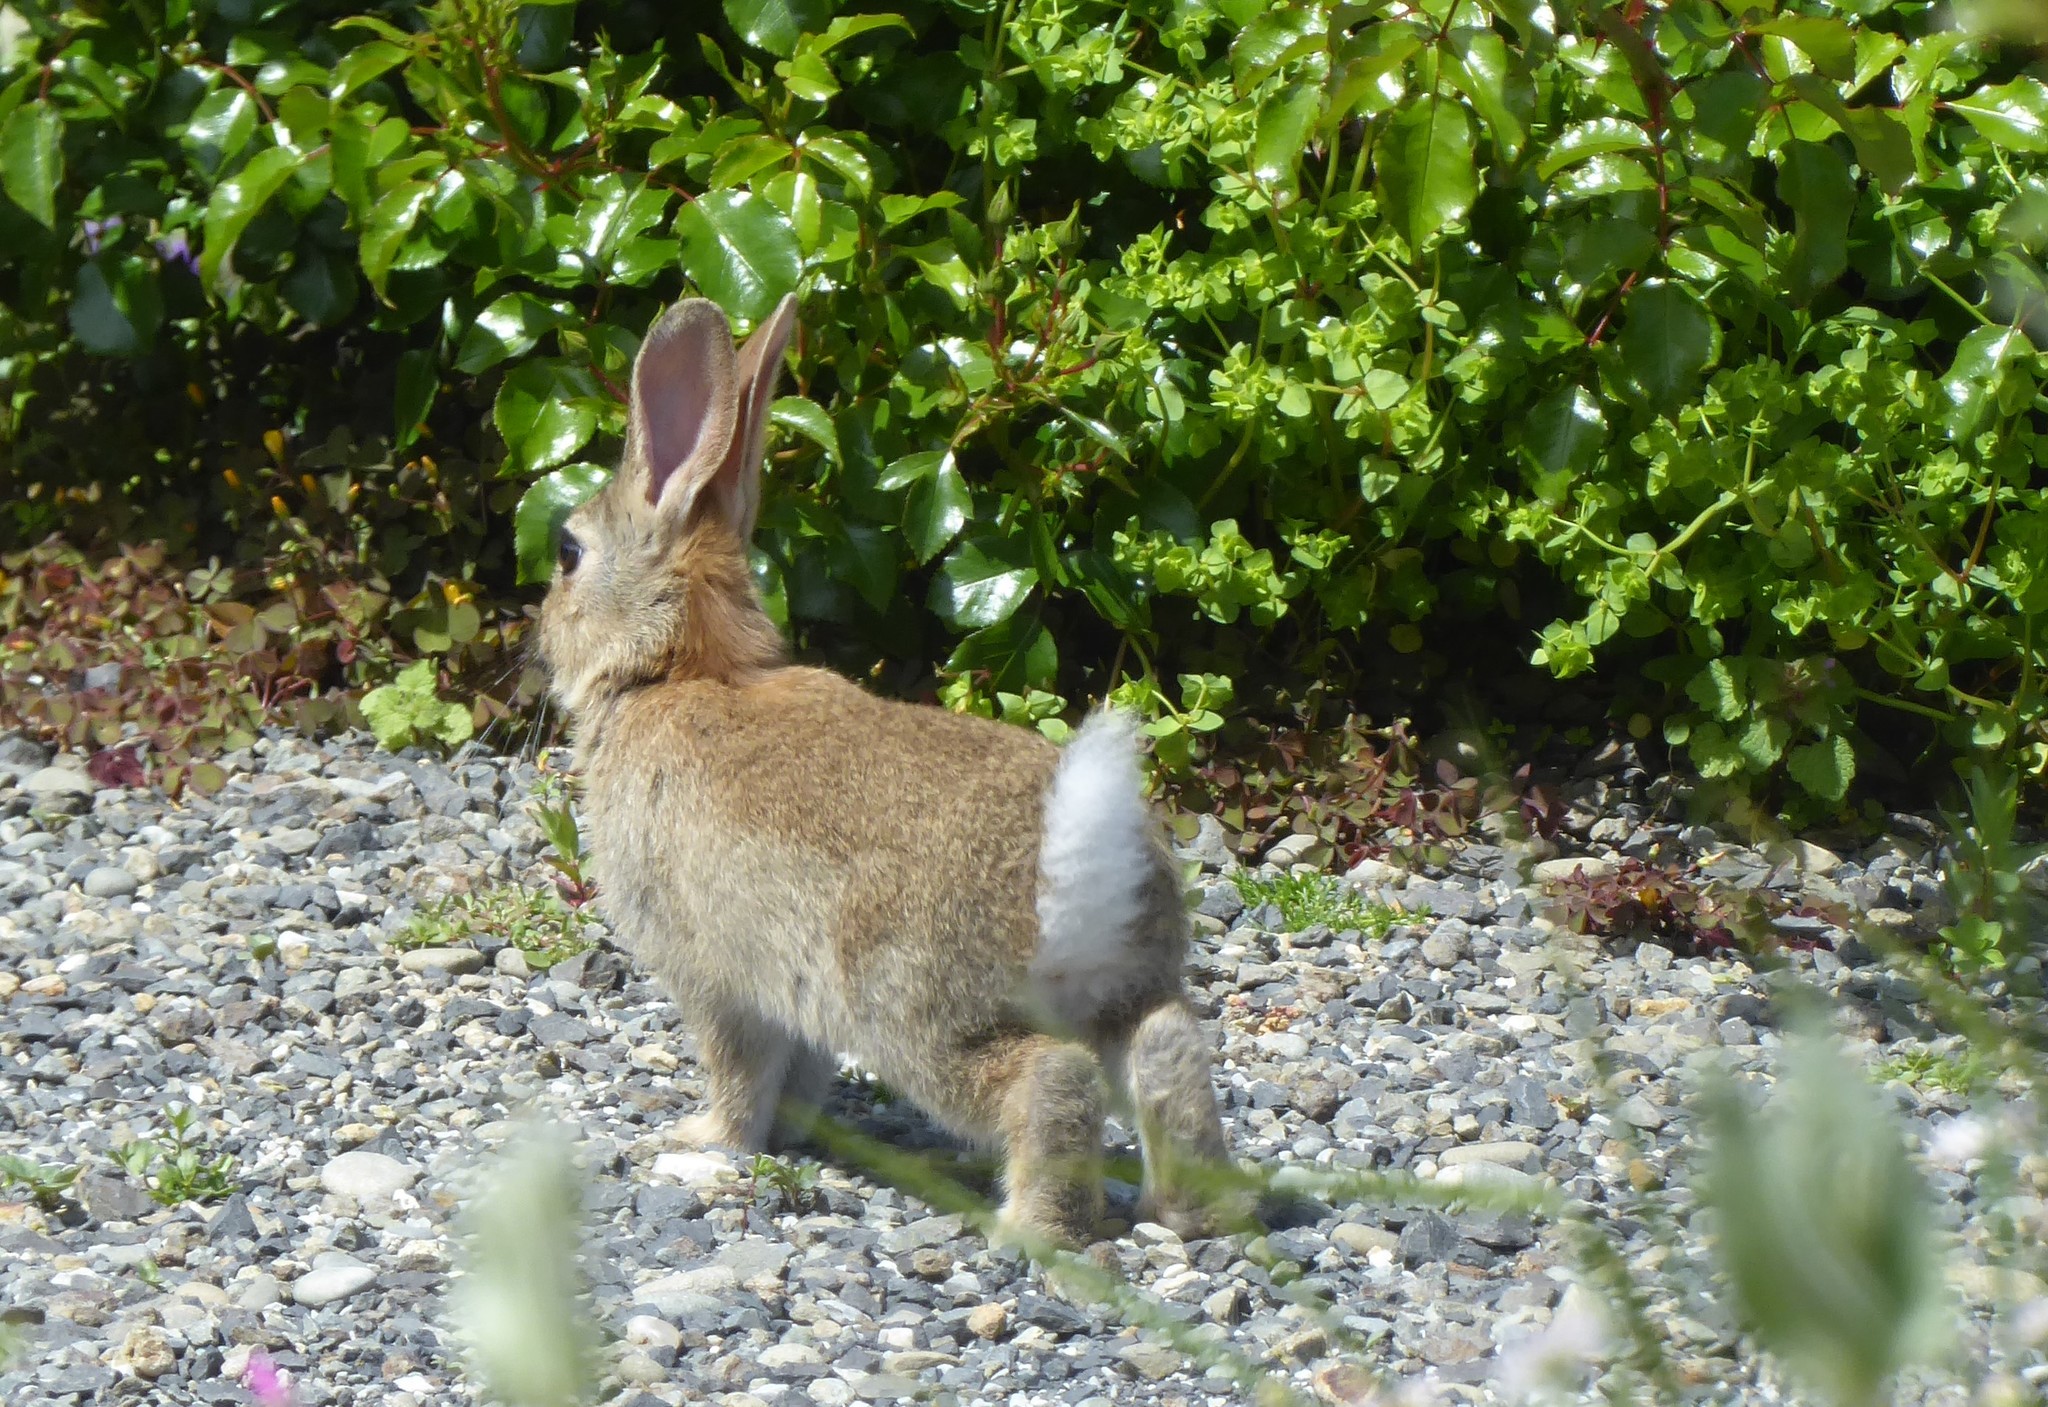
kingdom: Animalia
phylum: Chordata
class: Mammalia
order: Lagomorpha
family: Leporidae
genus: Oryctolagus
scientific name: Oryctolagus cuniculus
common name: European rabbit
